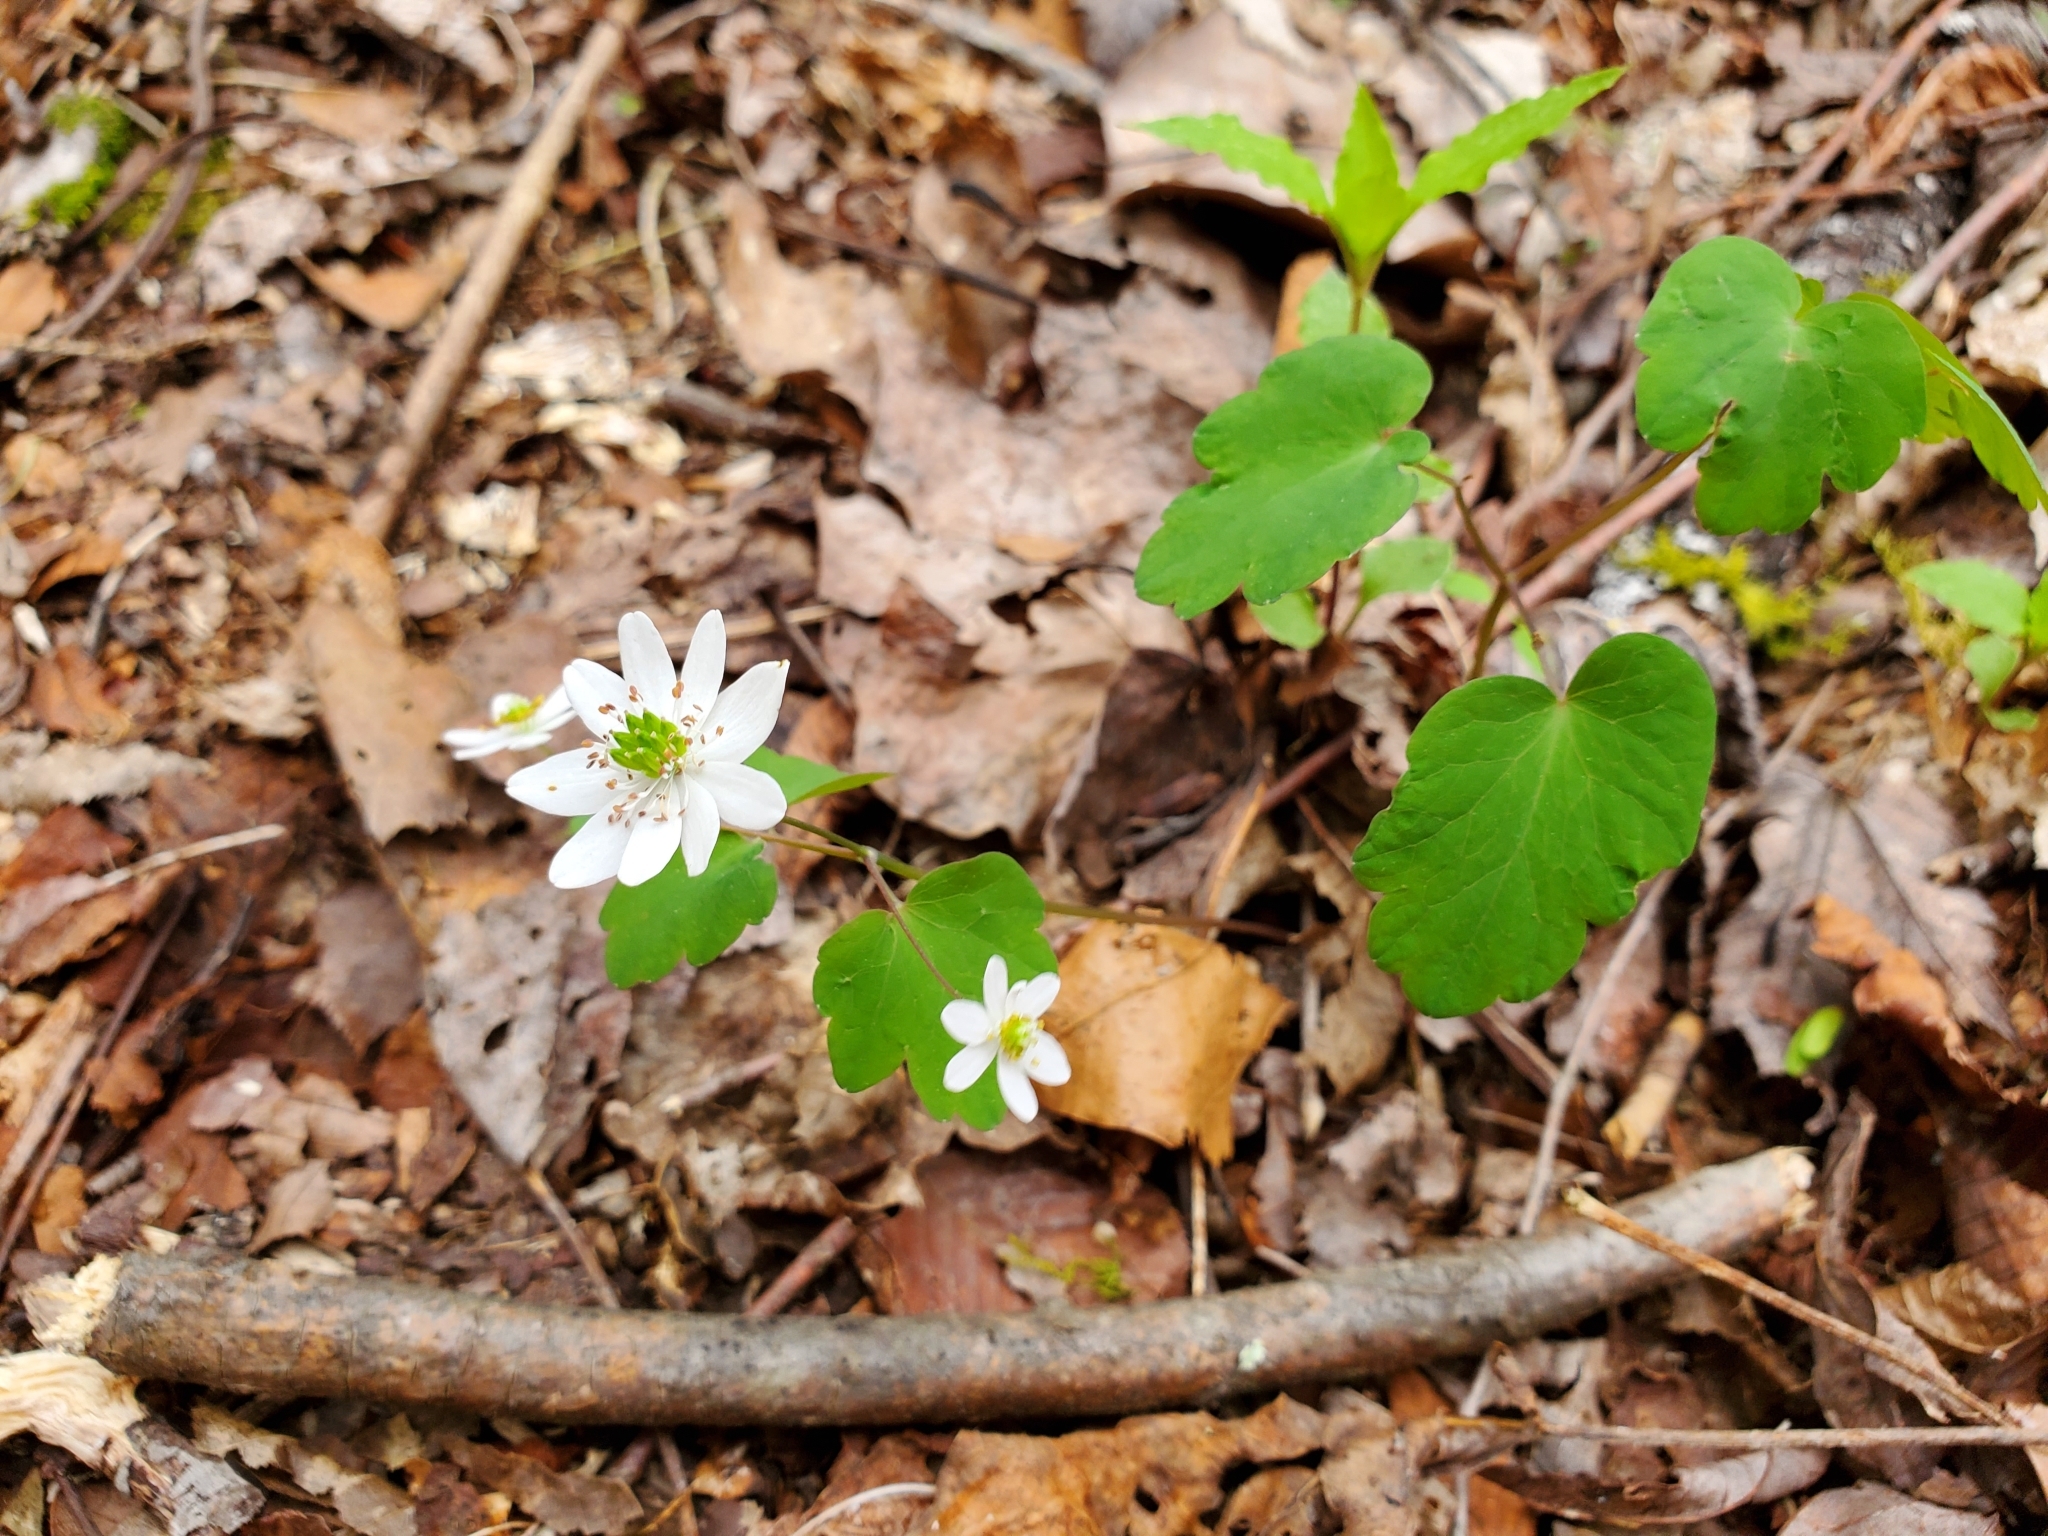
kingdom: Plantae
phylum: Tracheophyta
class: Magnoliopsida
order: Ranunculales
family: Ranunculaceae
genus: Thalictrum
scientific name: Thalictrum thalictroides
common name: Rue-anemone
